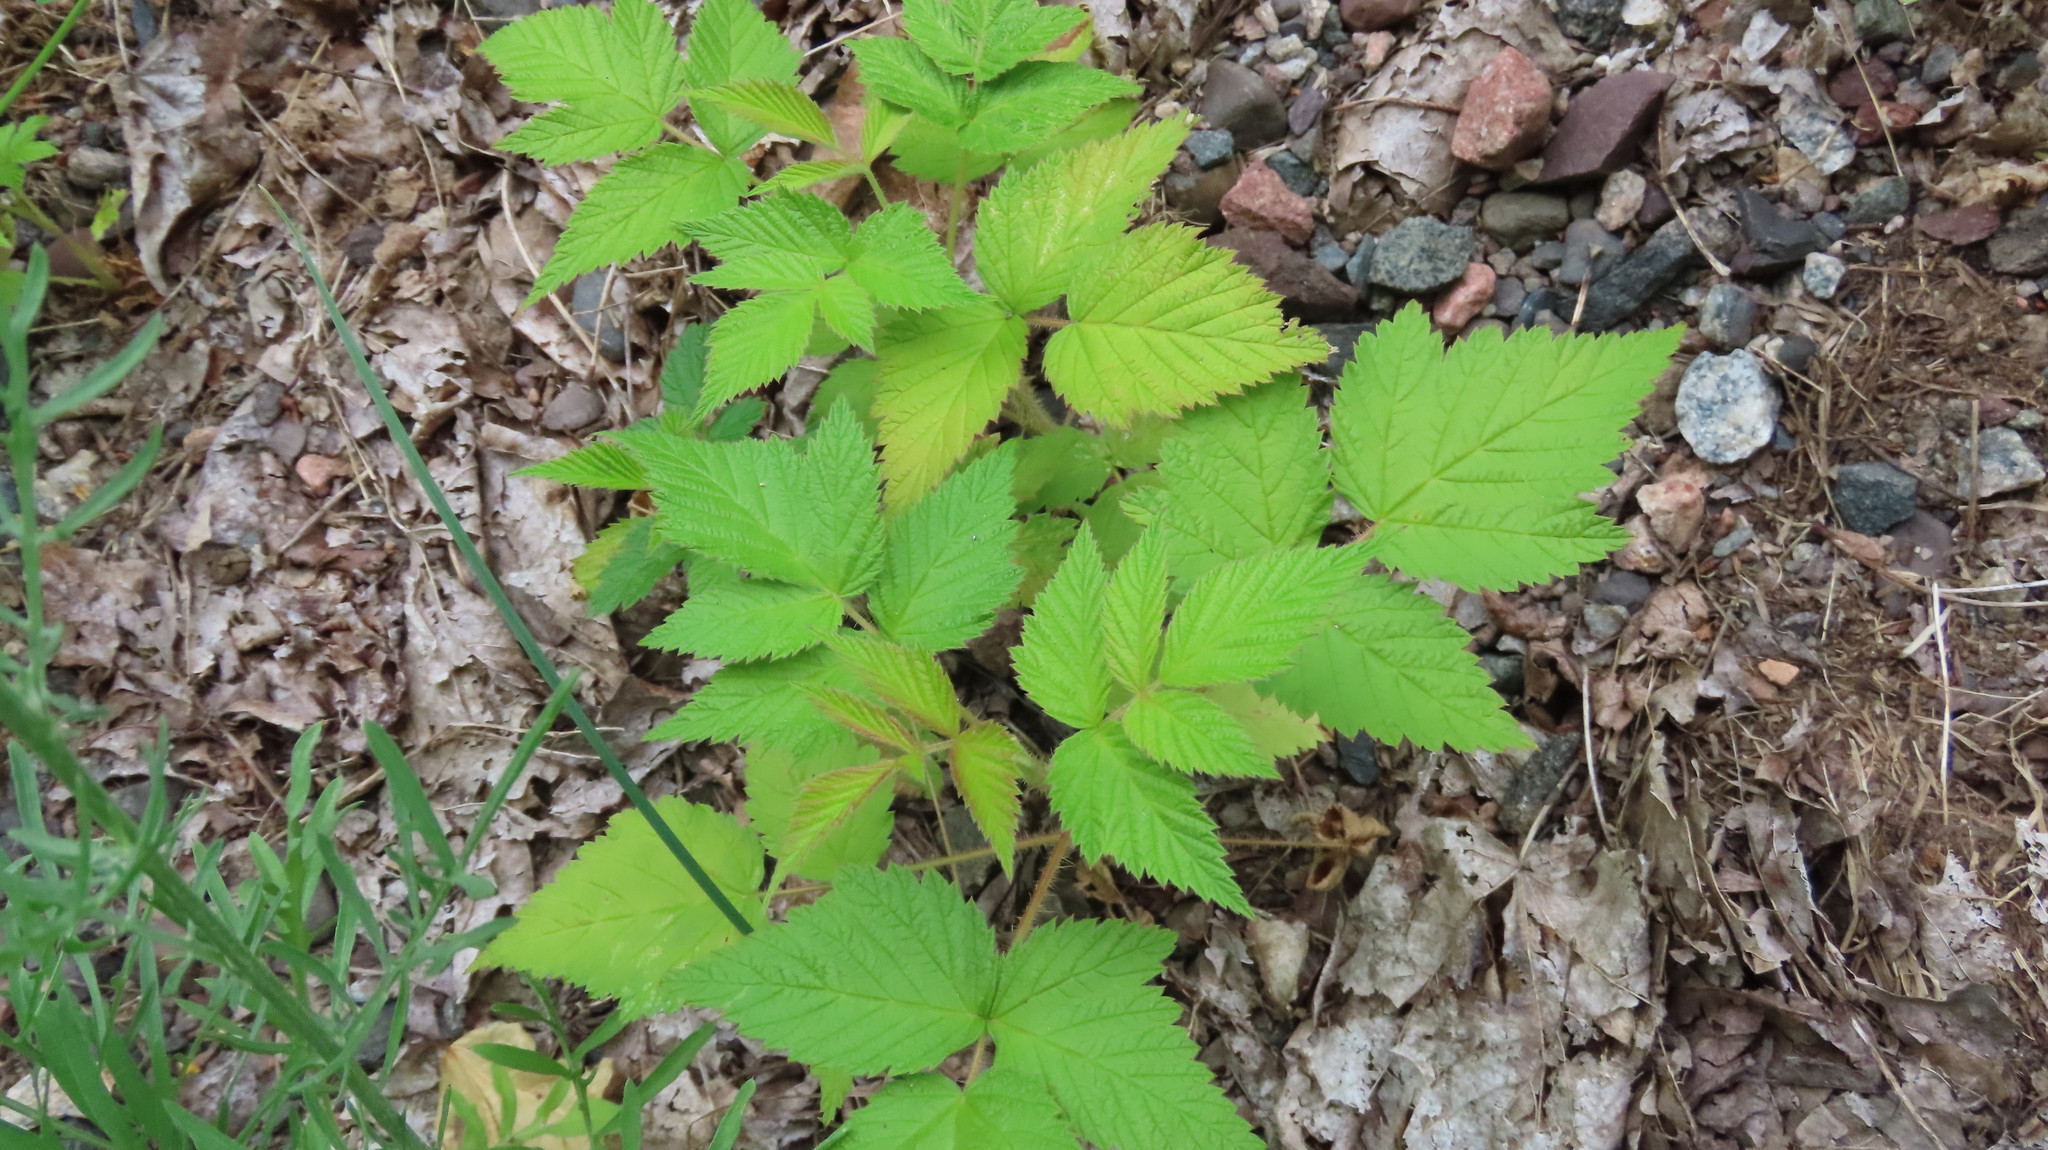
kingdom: Plantae
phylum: Tracheophyta
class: Magnoliopsida
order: Rosales
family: Rosaceae
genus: Rubus
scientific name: Rubus idaeus
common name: Raspberry
